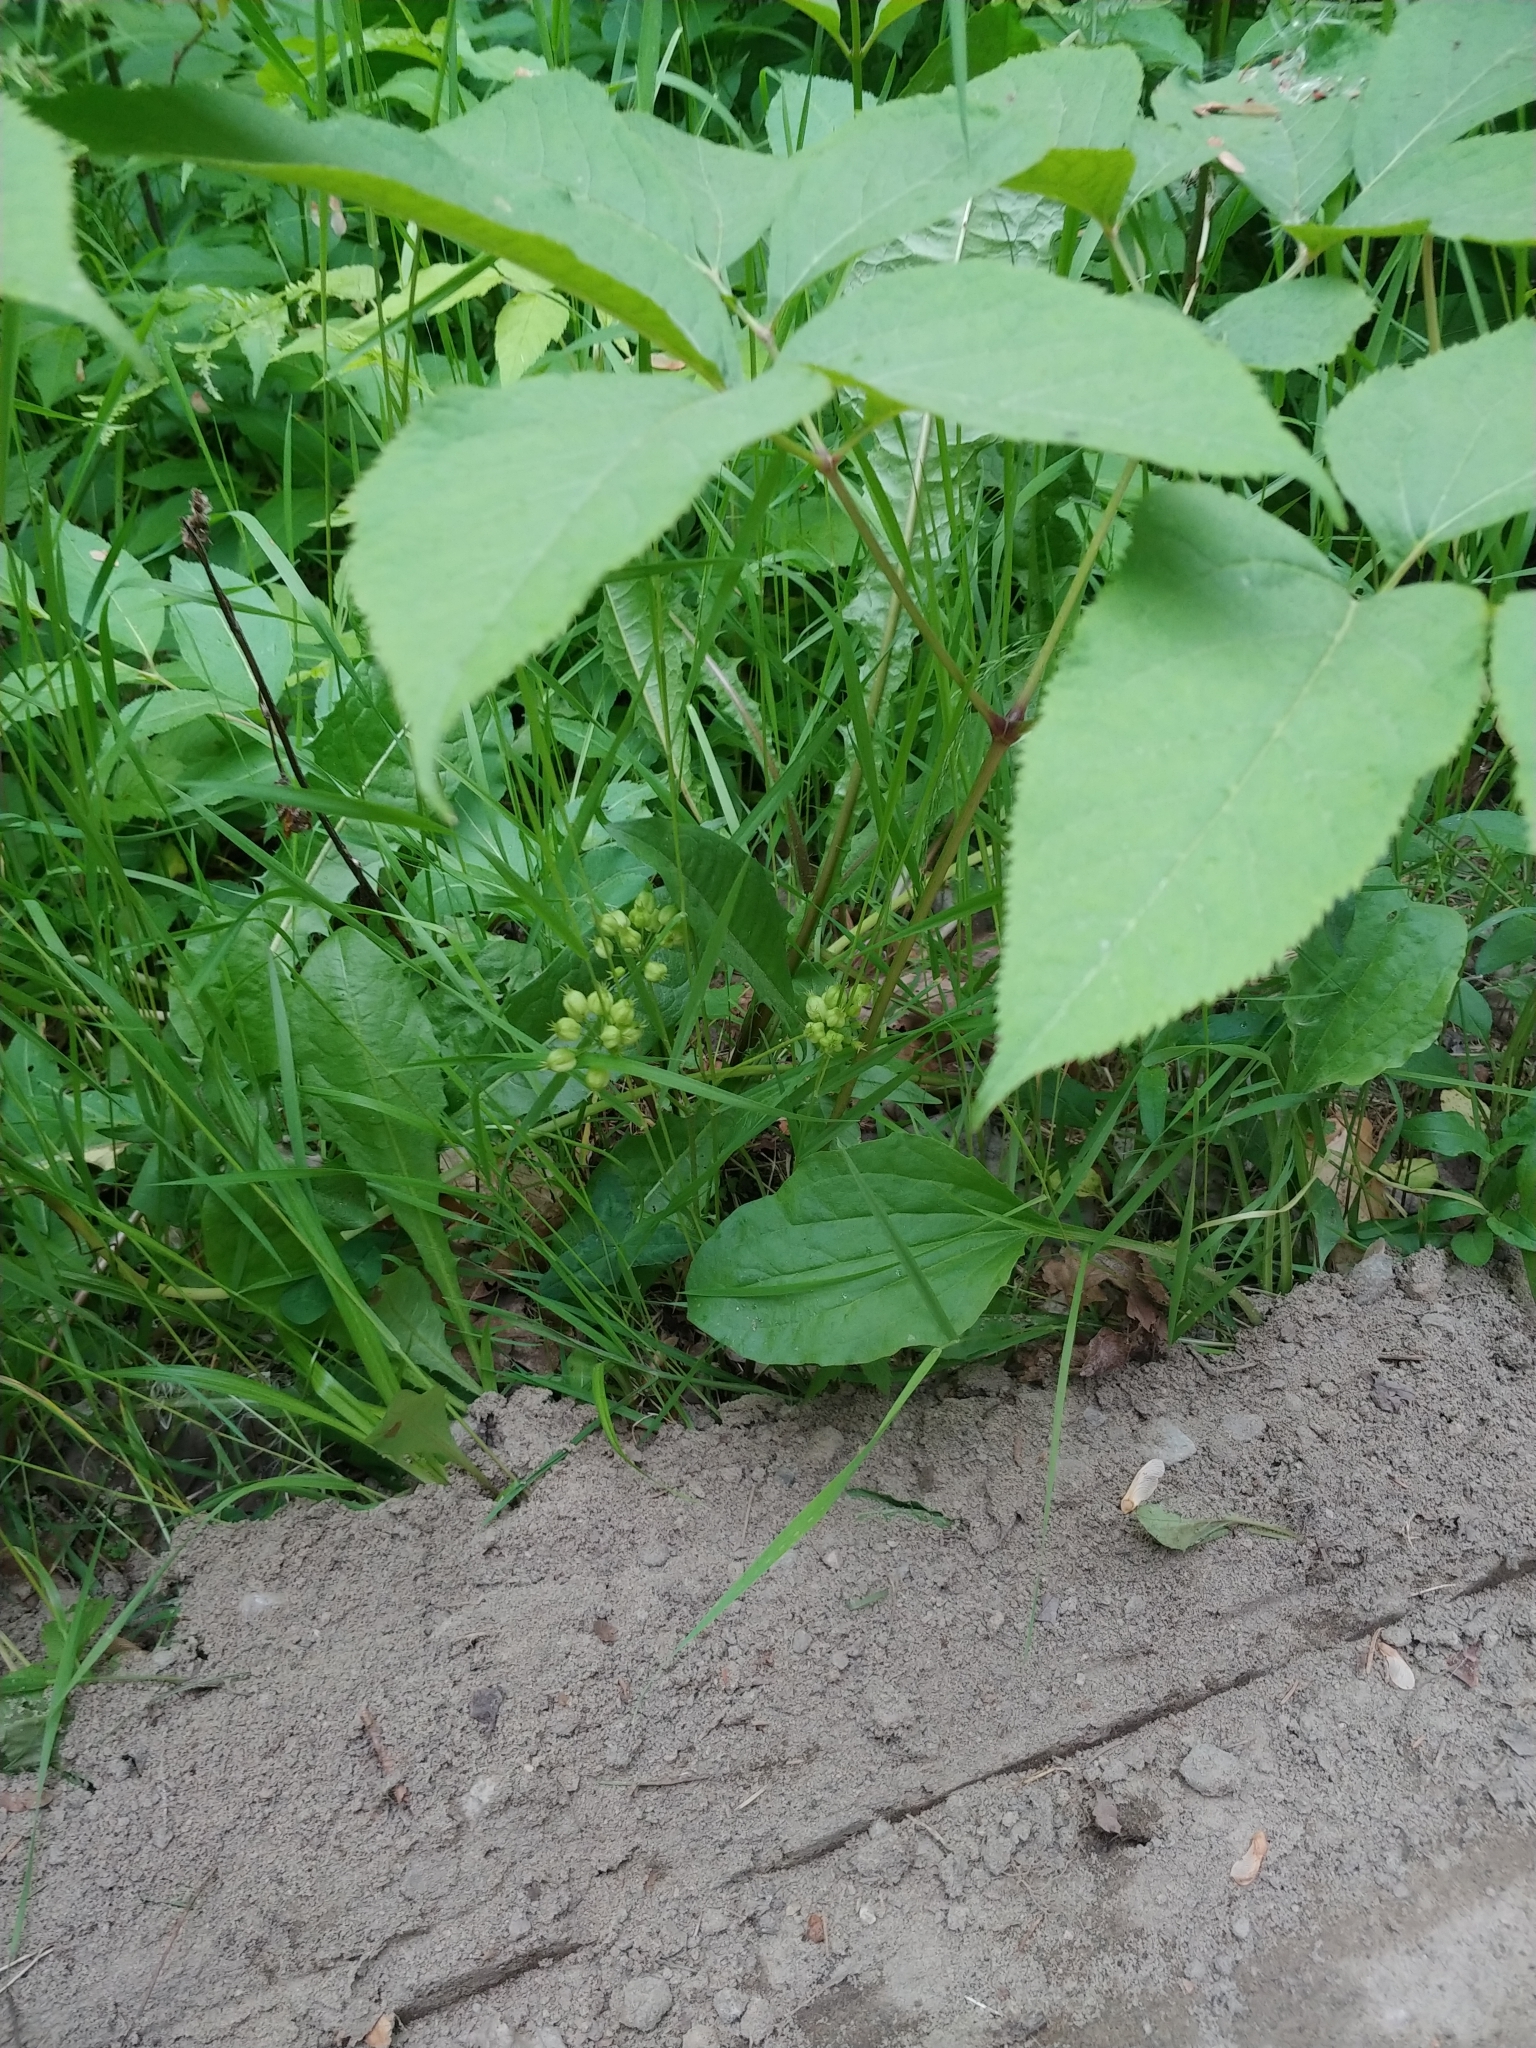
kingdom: Plantae
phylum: Tracheophyta
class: Magnoliopsida
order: Apiales
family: Araliaceae
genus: Aralia
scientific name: Aralia nudicaulis
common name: Wild sarsaparilla
